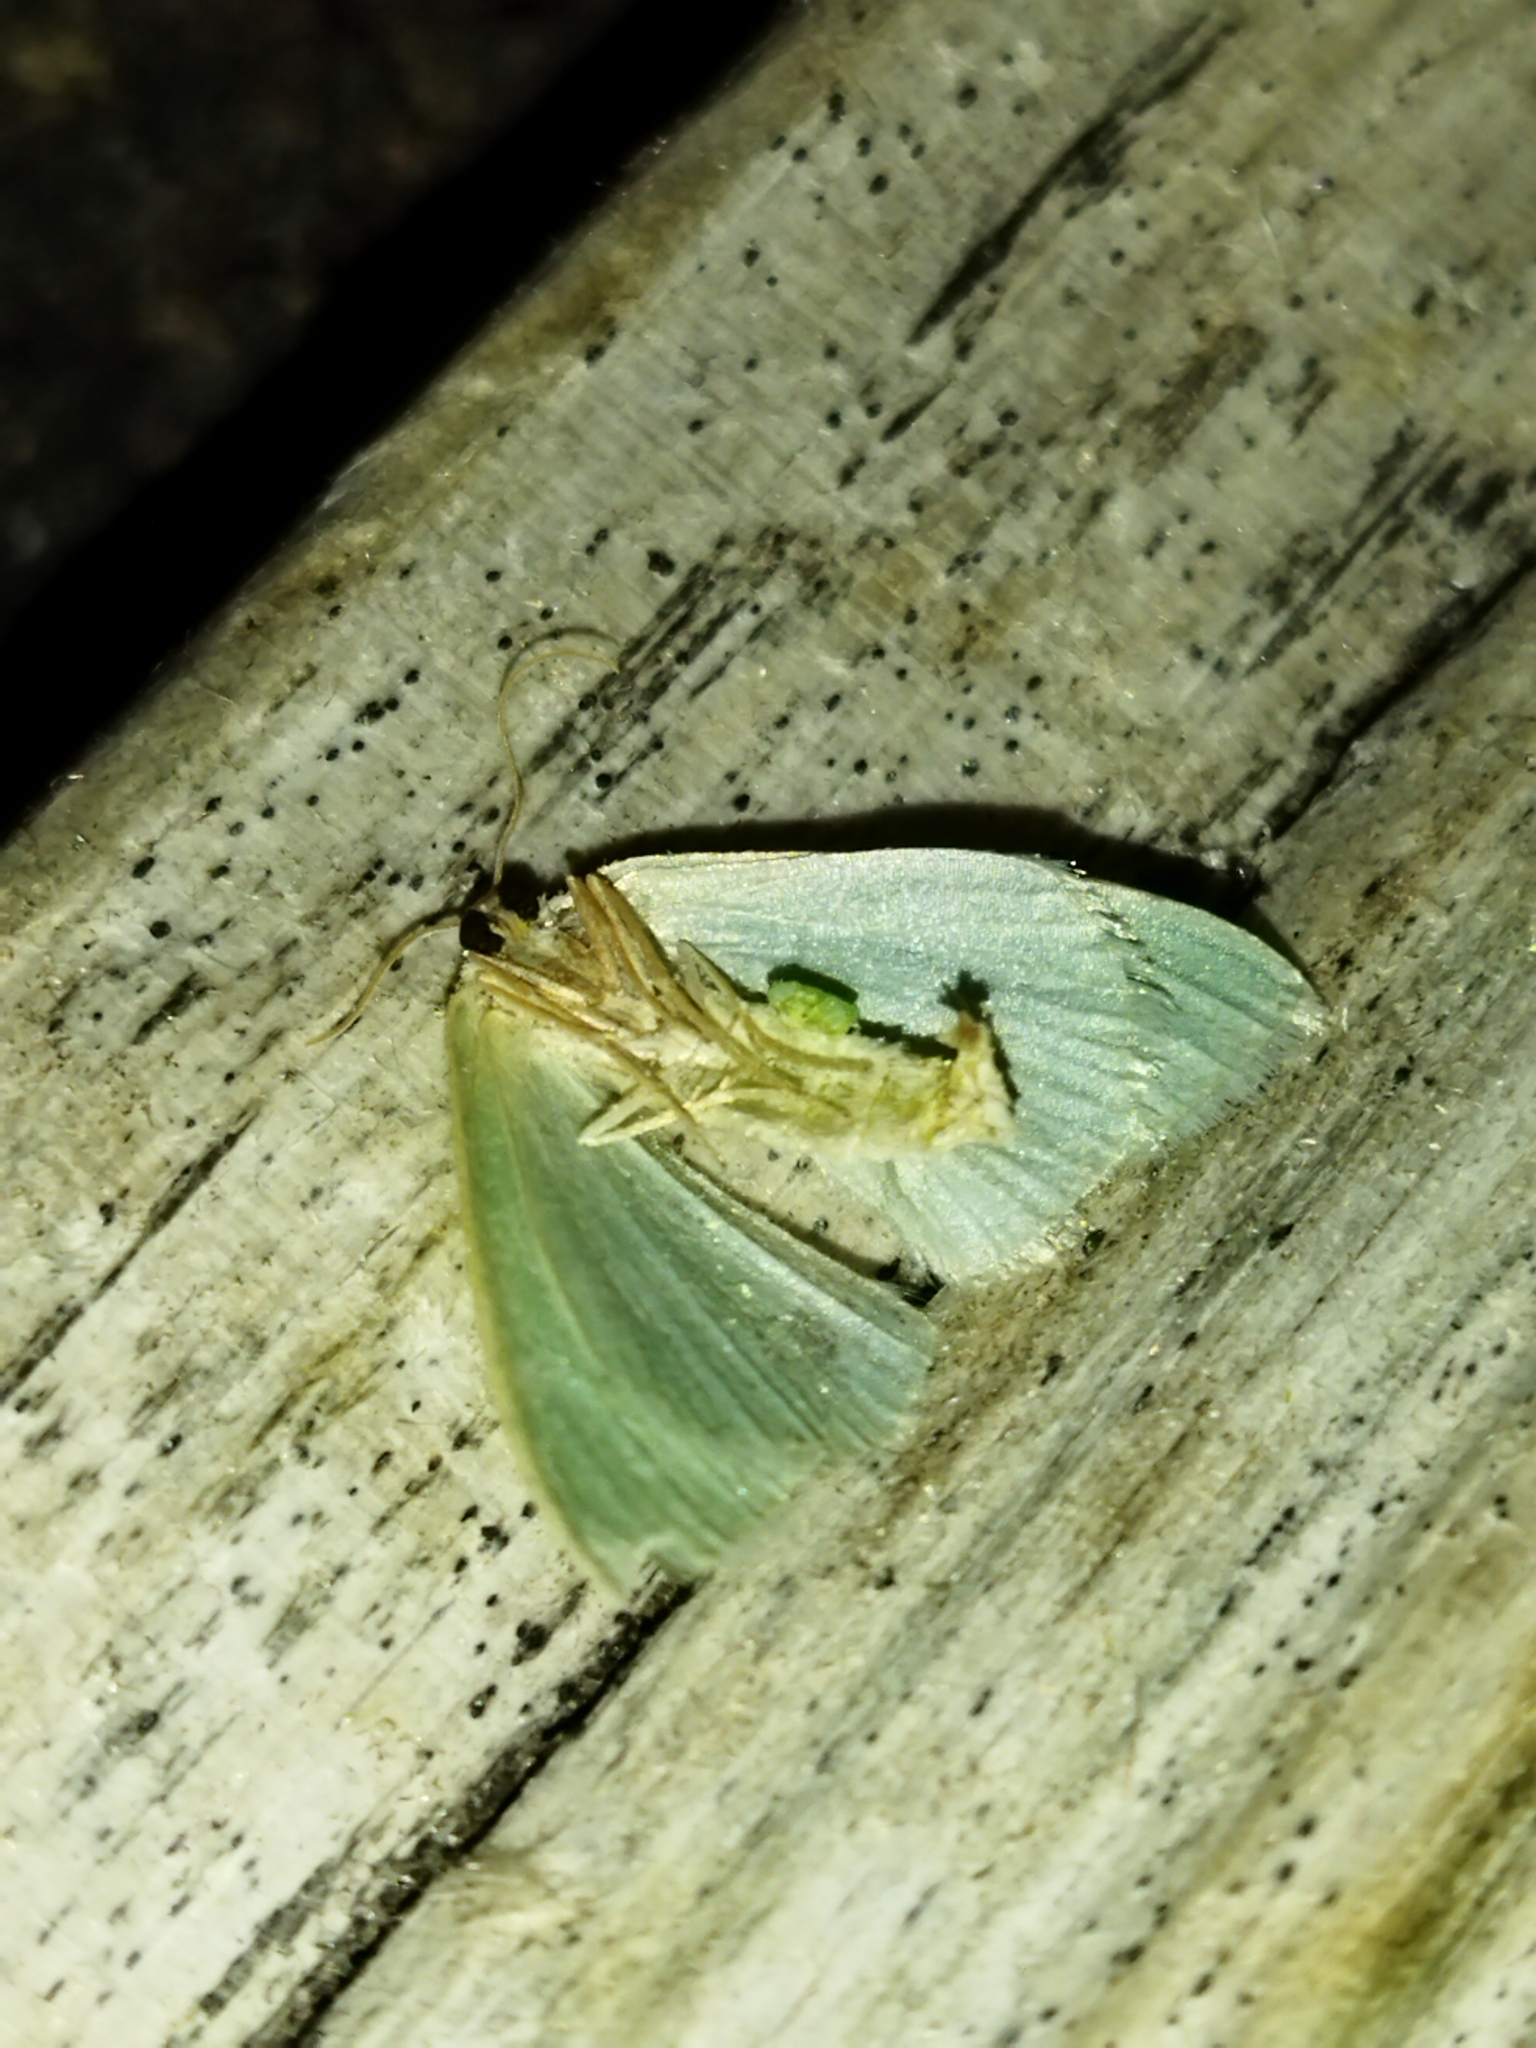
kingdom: Animalia
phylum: Arthropoda
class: Insecta
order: Lepidoptera
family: Geometridae
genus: Chlorissa
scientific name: Chlorissa etruscaria
